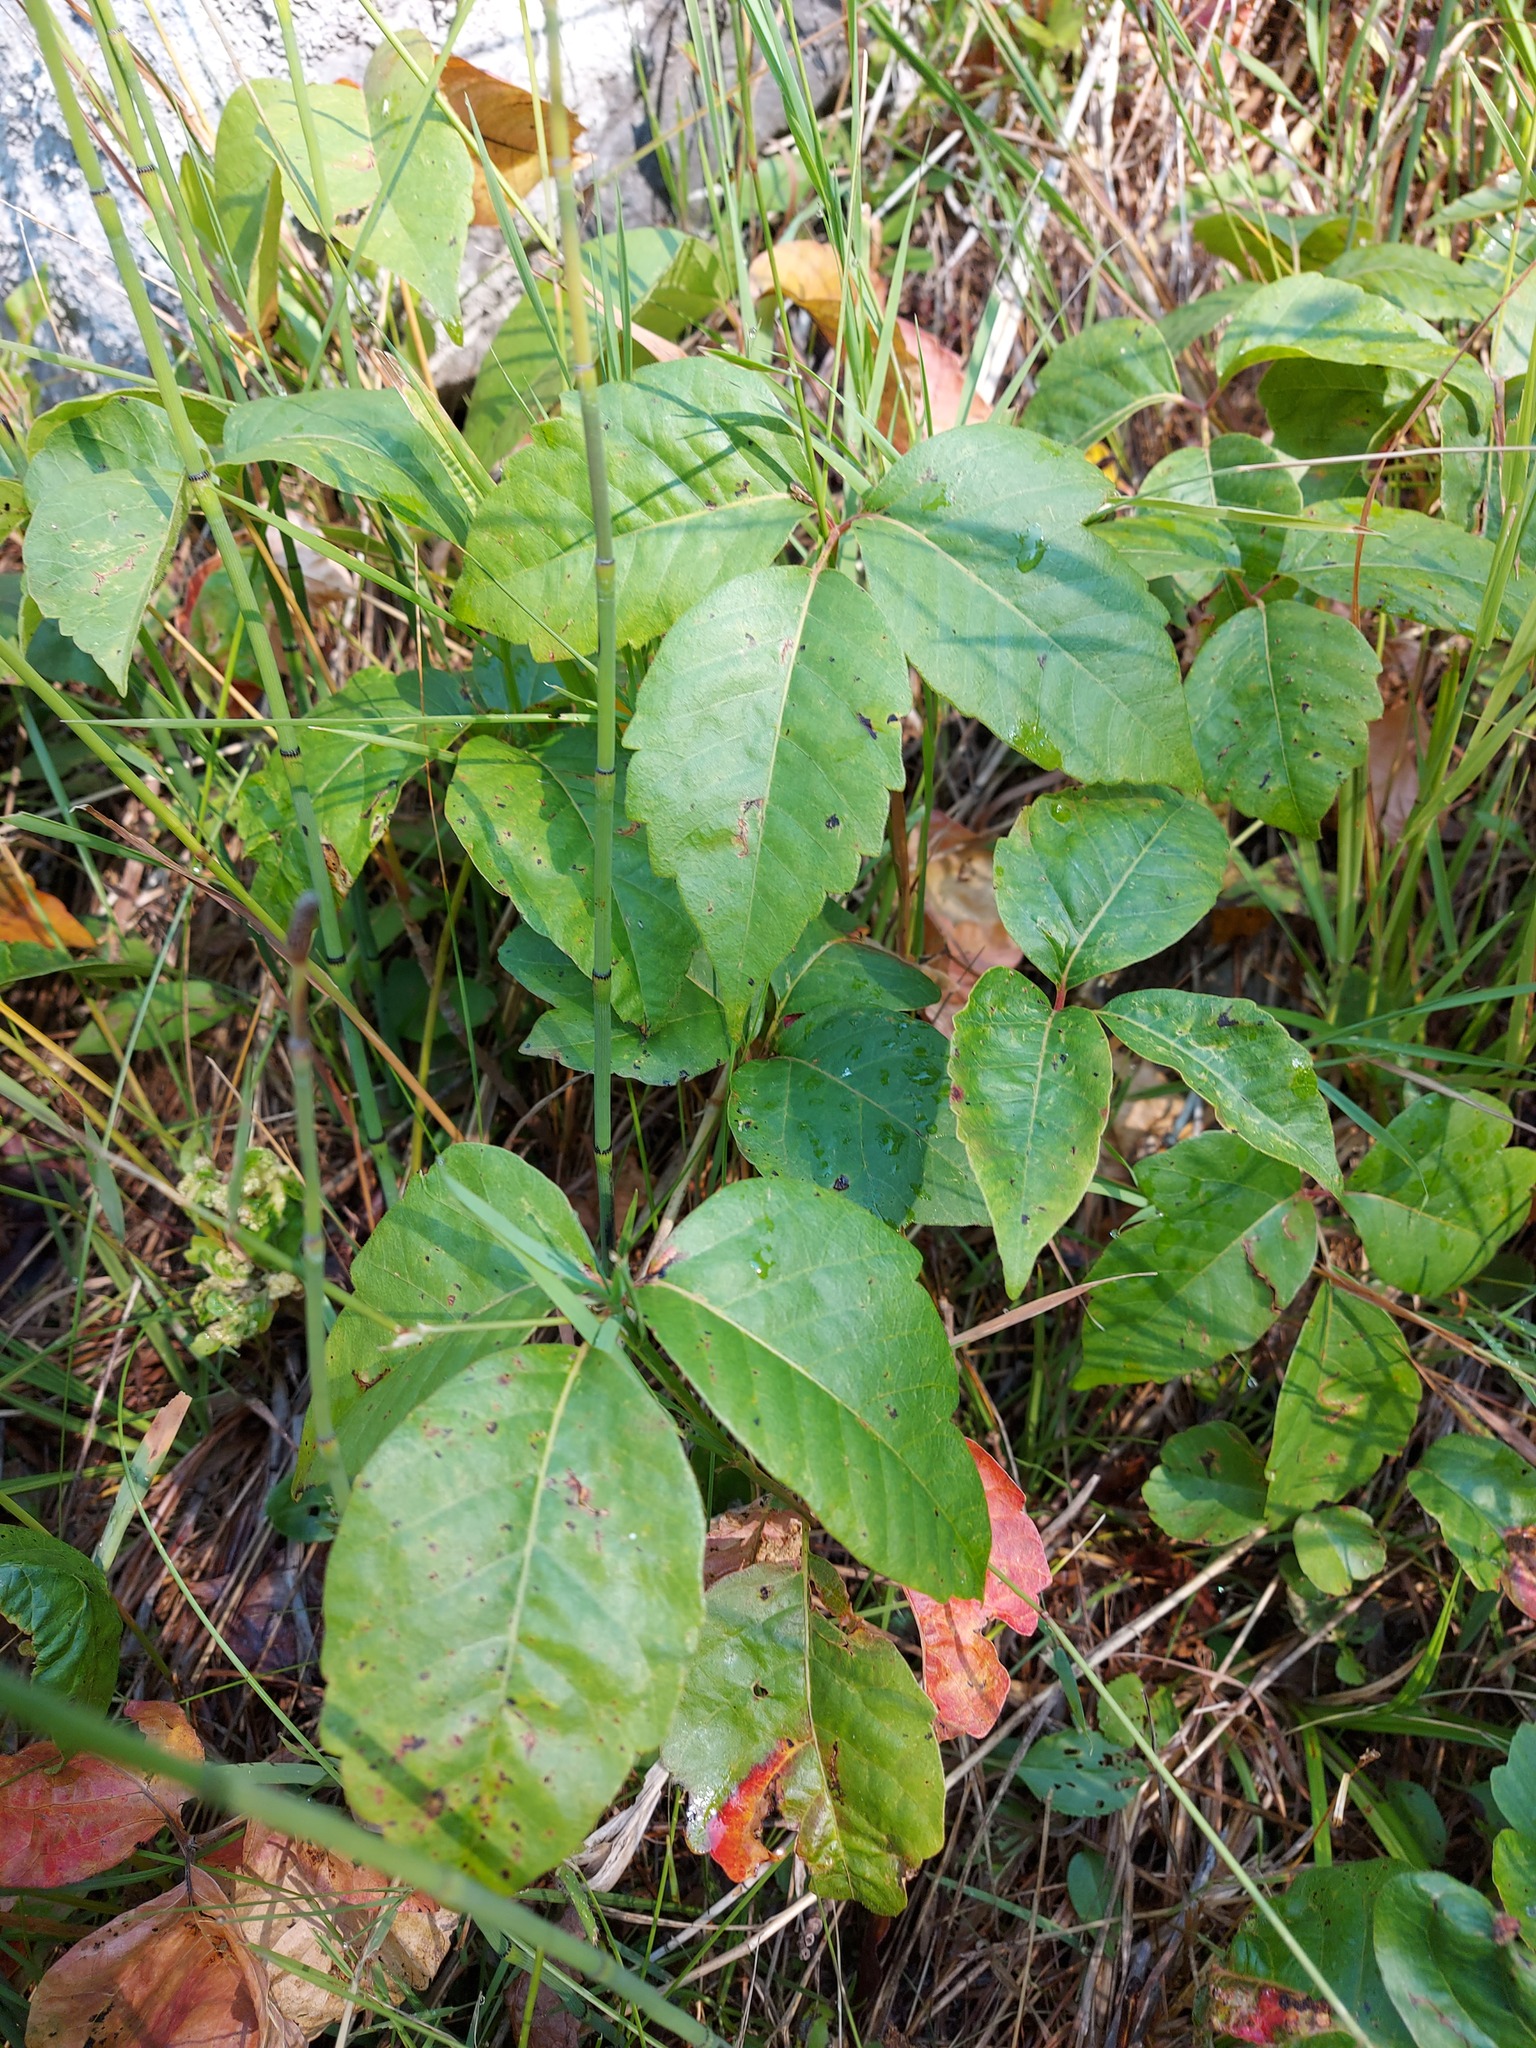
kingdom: Plantae
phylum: Tracheophyta
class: Magnoliopsida
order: Sapindales
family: Anacardiaceae
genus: Toxicodendron
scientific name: Toxicodendron rydbergii
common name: Rydberg's poison-ivy
